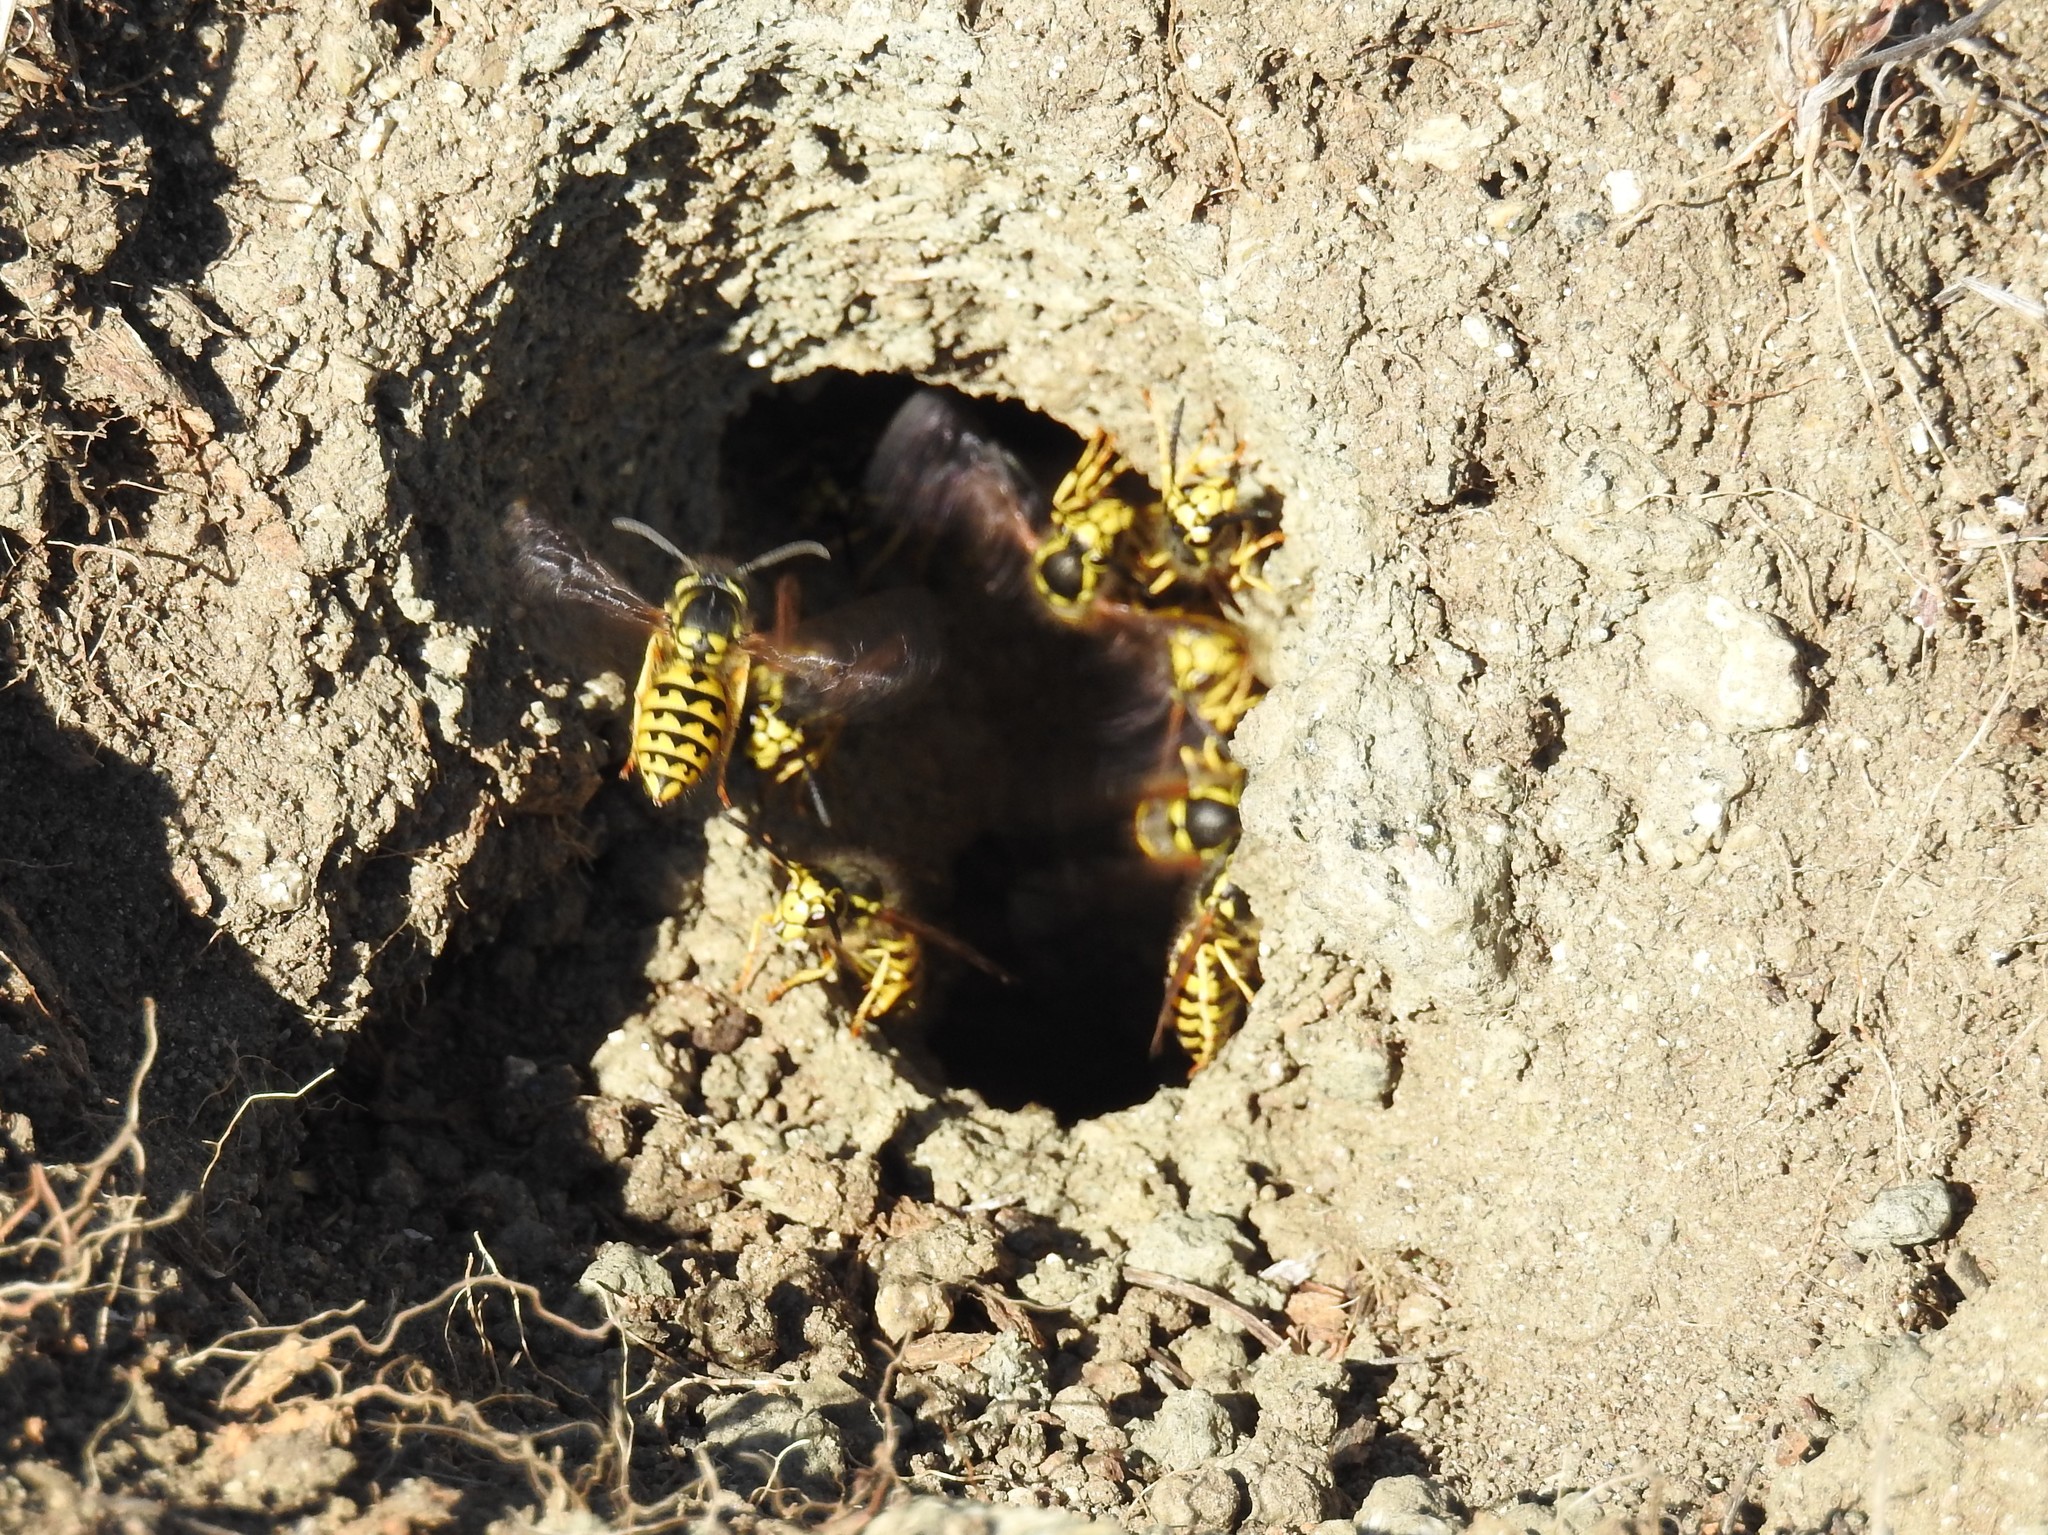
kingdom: Animalia
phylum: Arthropoda
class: Insecta
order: Hymenoptera
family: Vespidae
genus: Vespula
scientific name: Vespula pensylvanica
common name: Western yellowjacket
